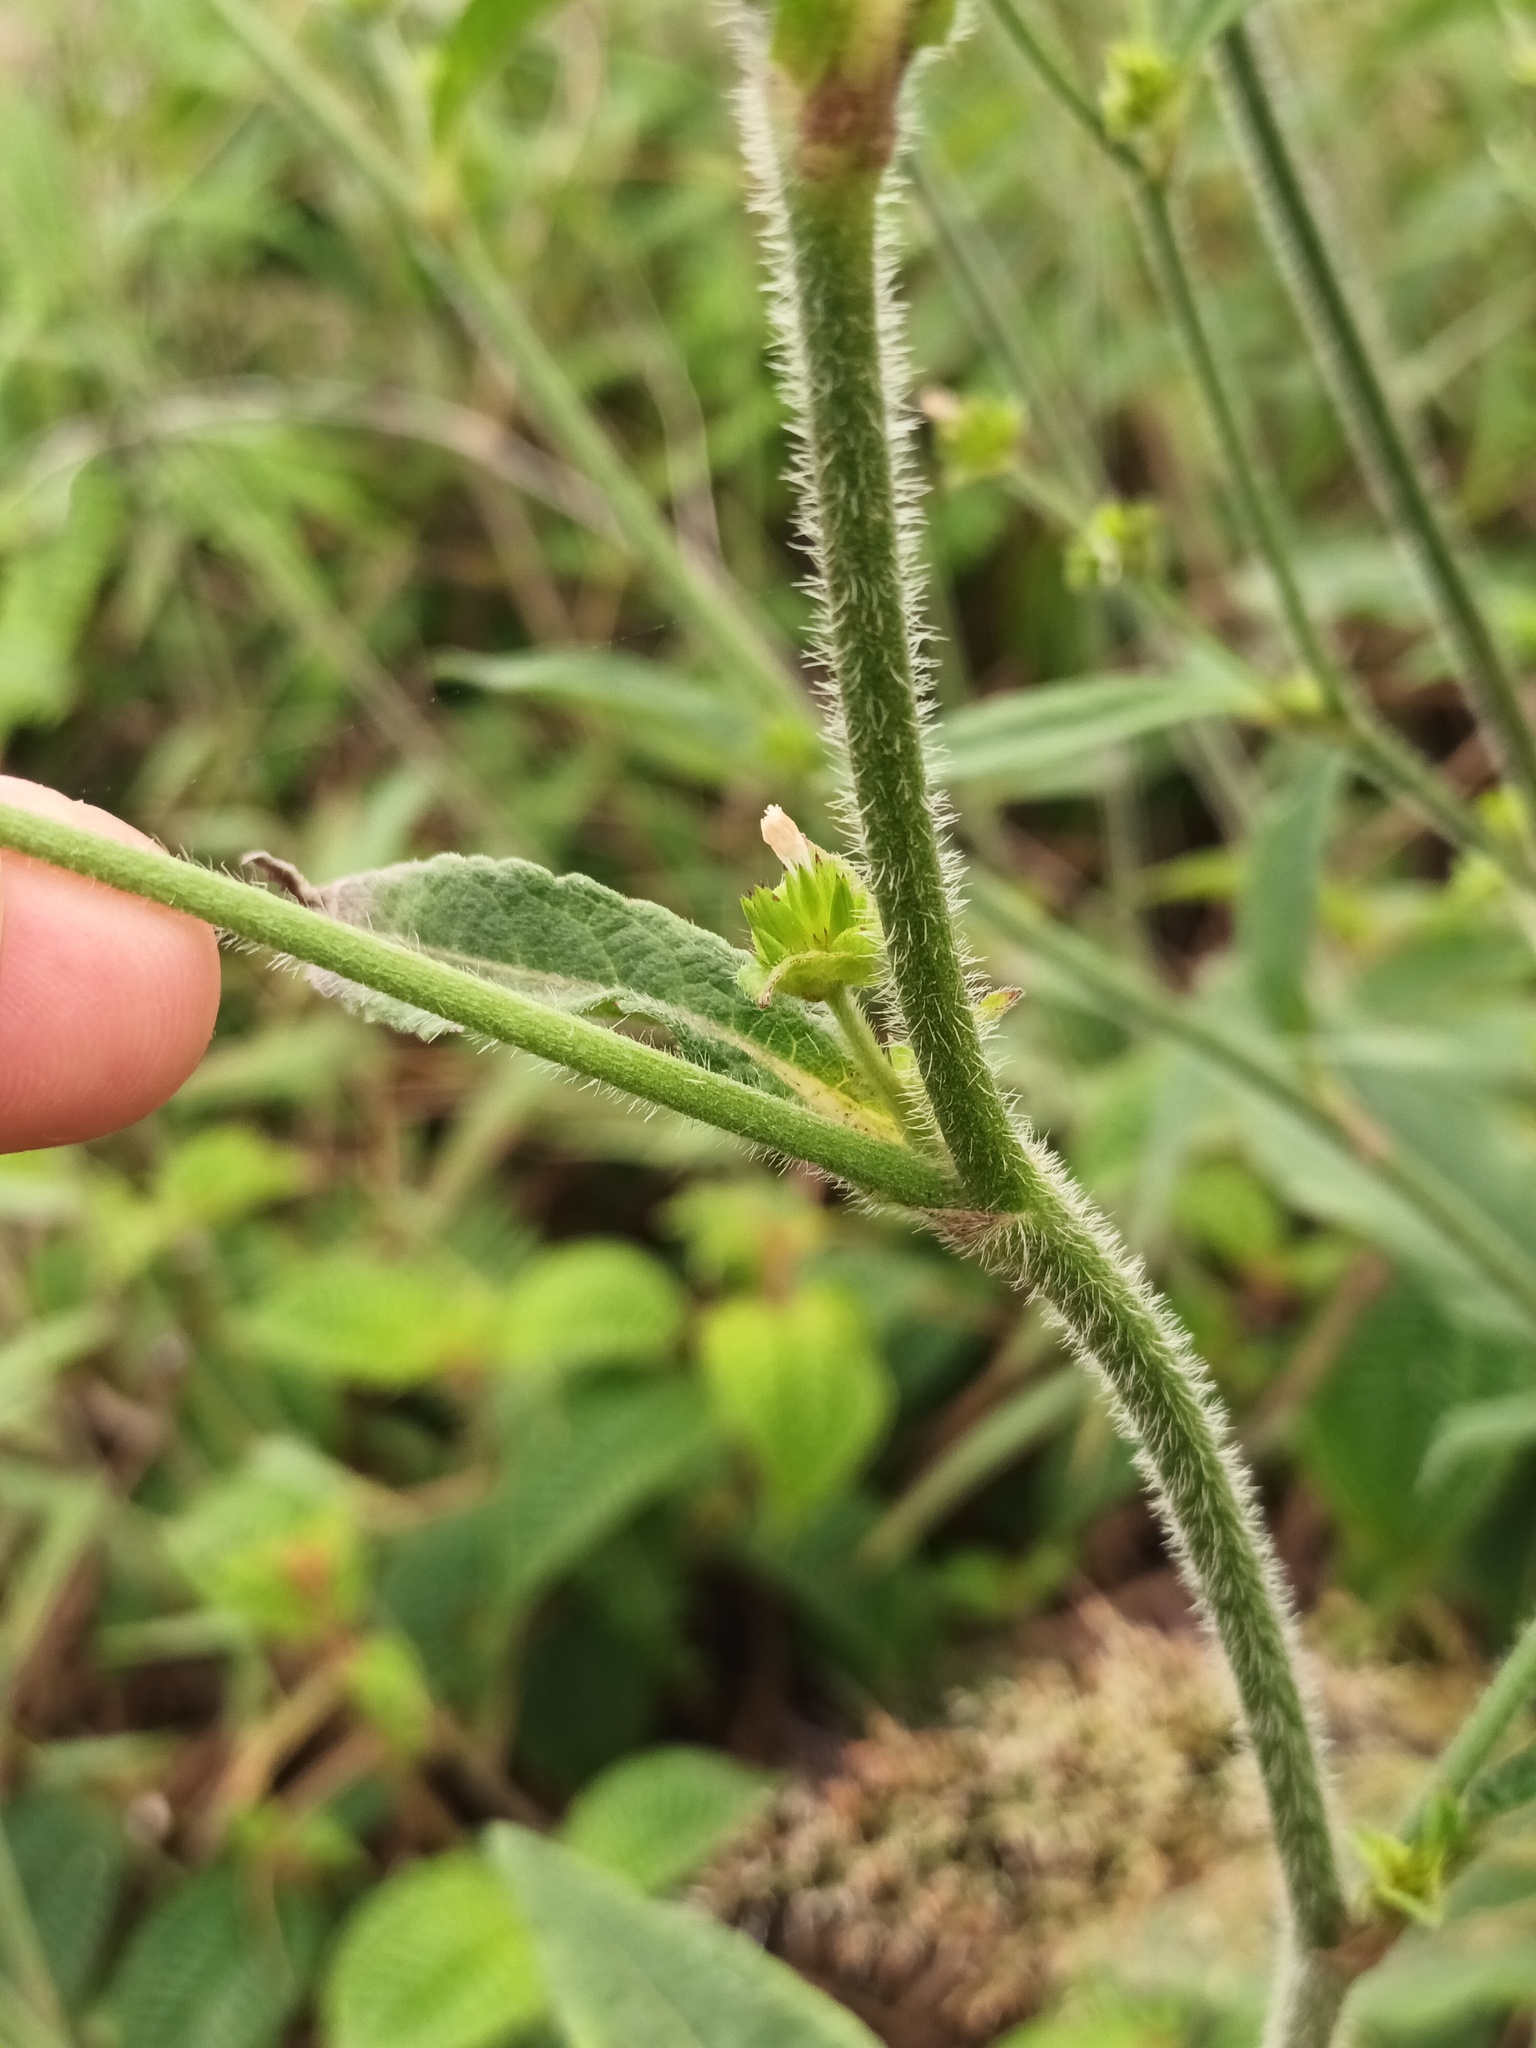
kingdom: Plantae
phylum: Tracheophyta
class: Magnoliopsida
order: Asterales
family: Asteraceae
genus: Elephantopus
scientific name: Elephantopus mollis
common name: Soft elephantsfoot
